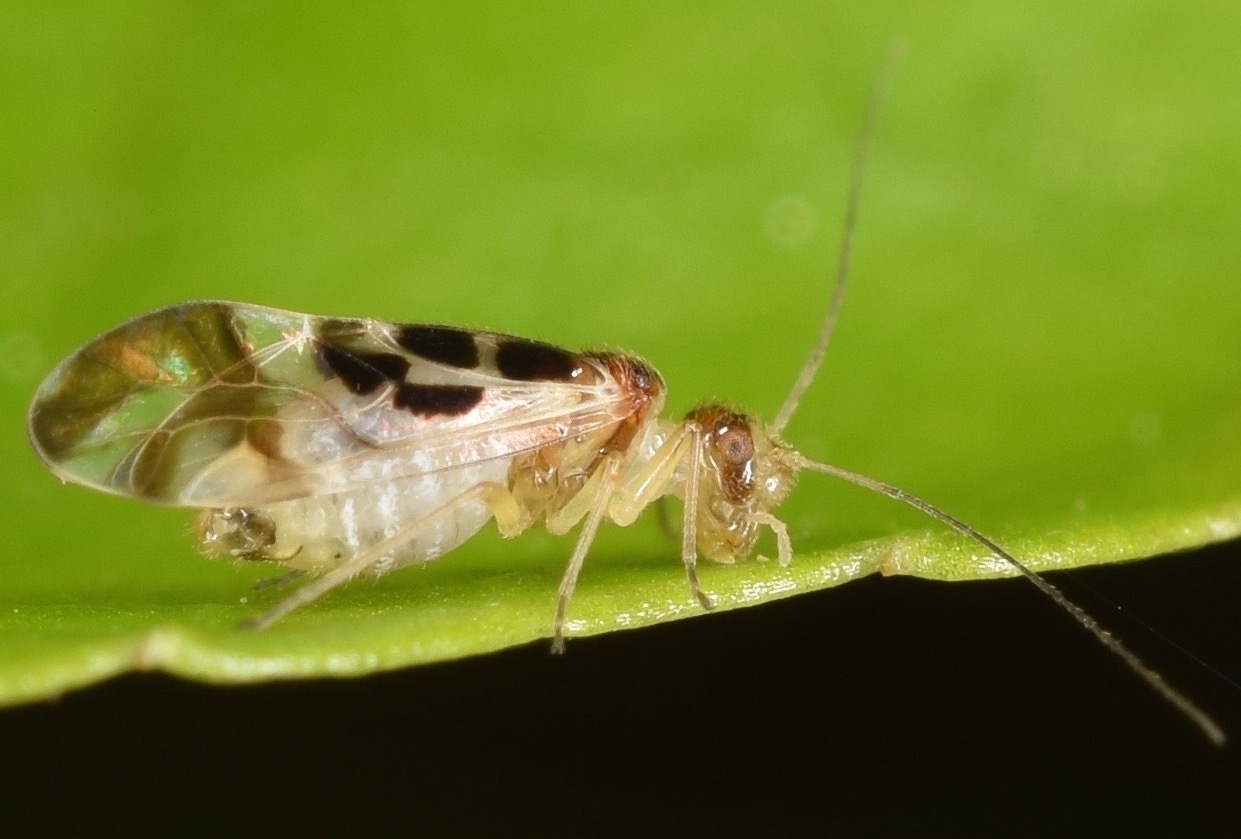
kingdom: Animalia
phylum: Arthropoda
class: Insecta
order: Psocodea
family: Stenopsocidae
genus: Graphopsocus
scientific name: Graphopsocus cruciatus
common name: Lizard bark louse
